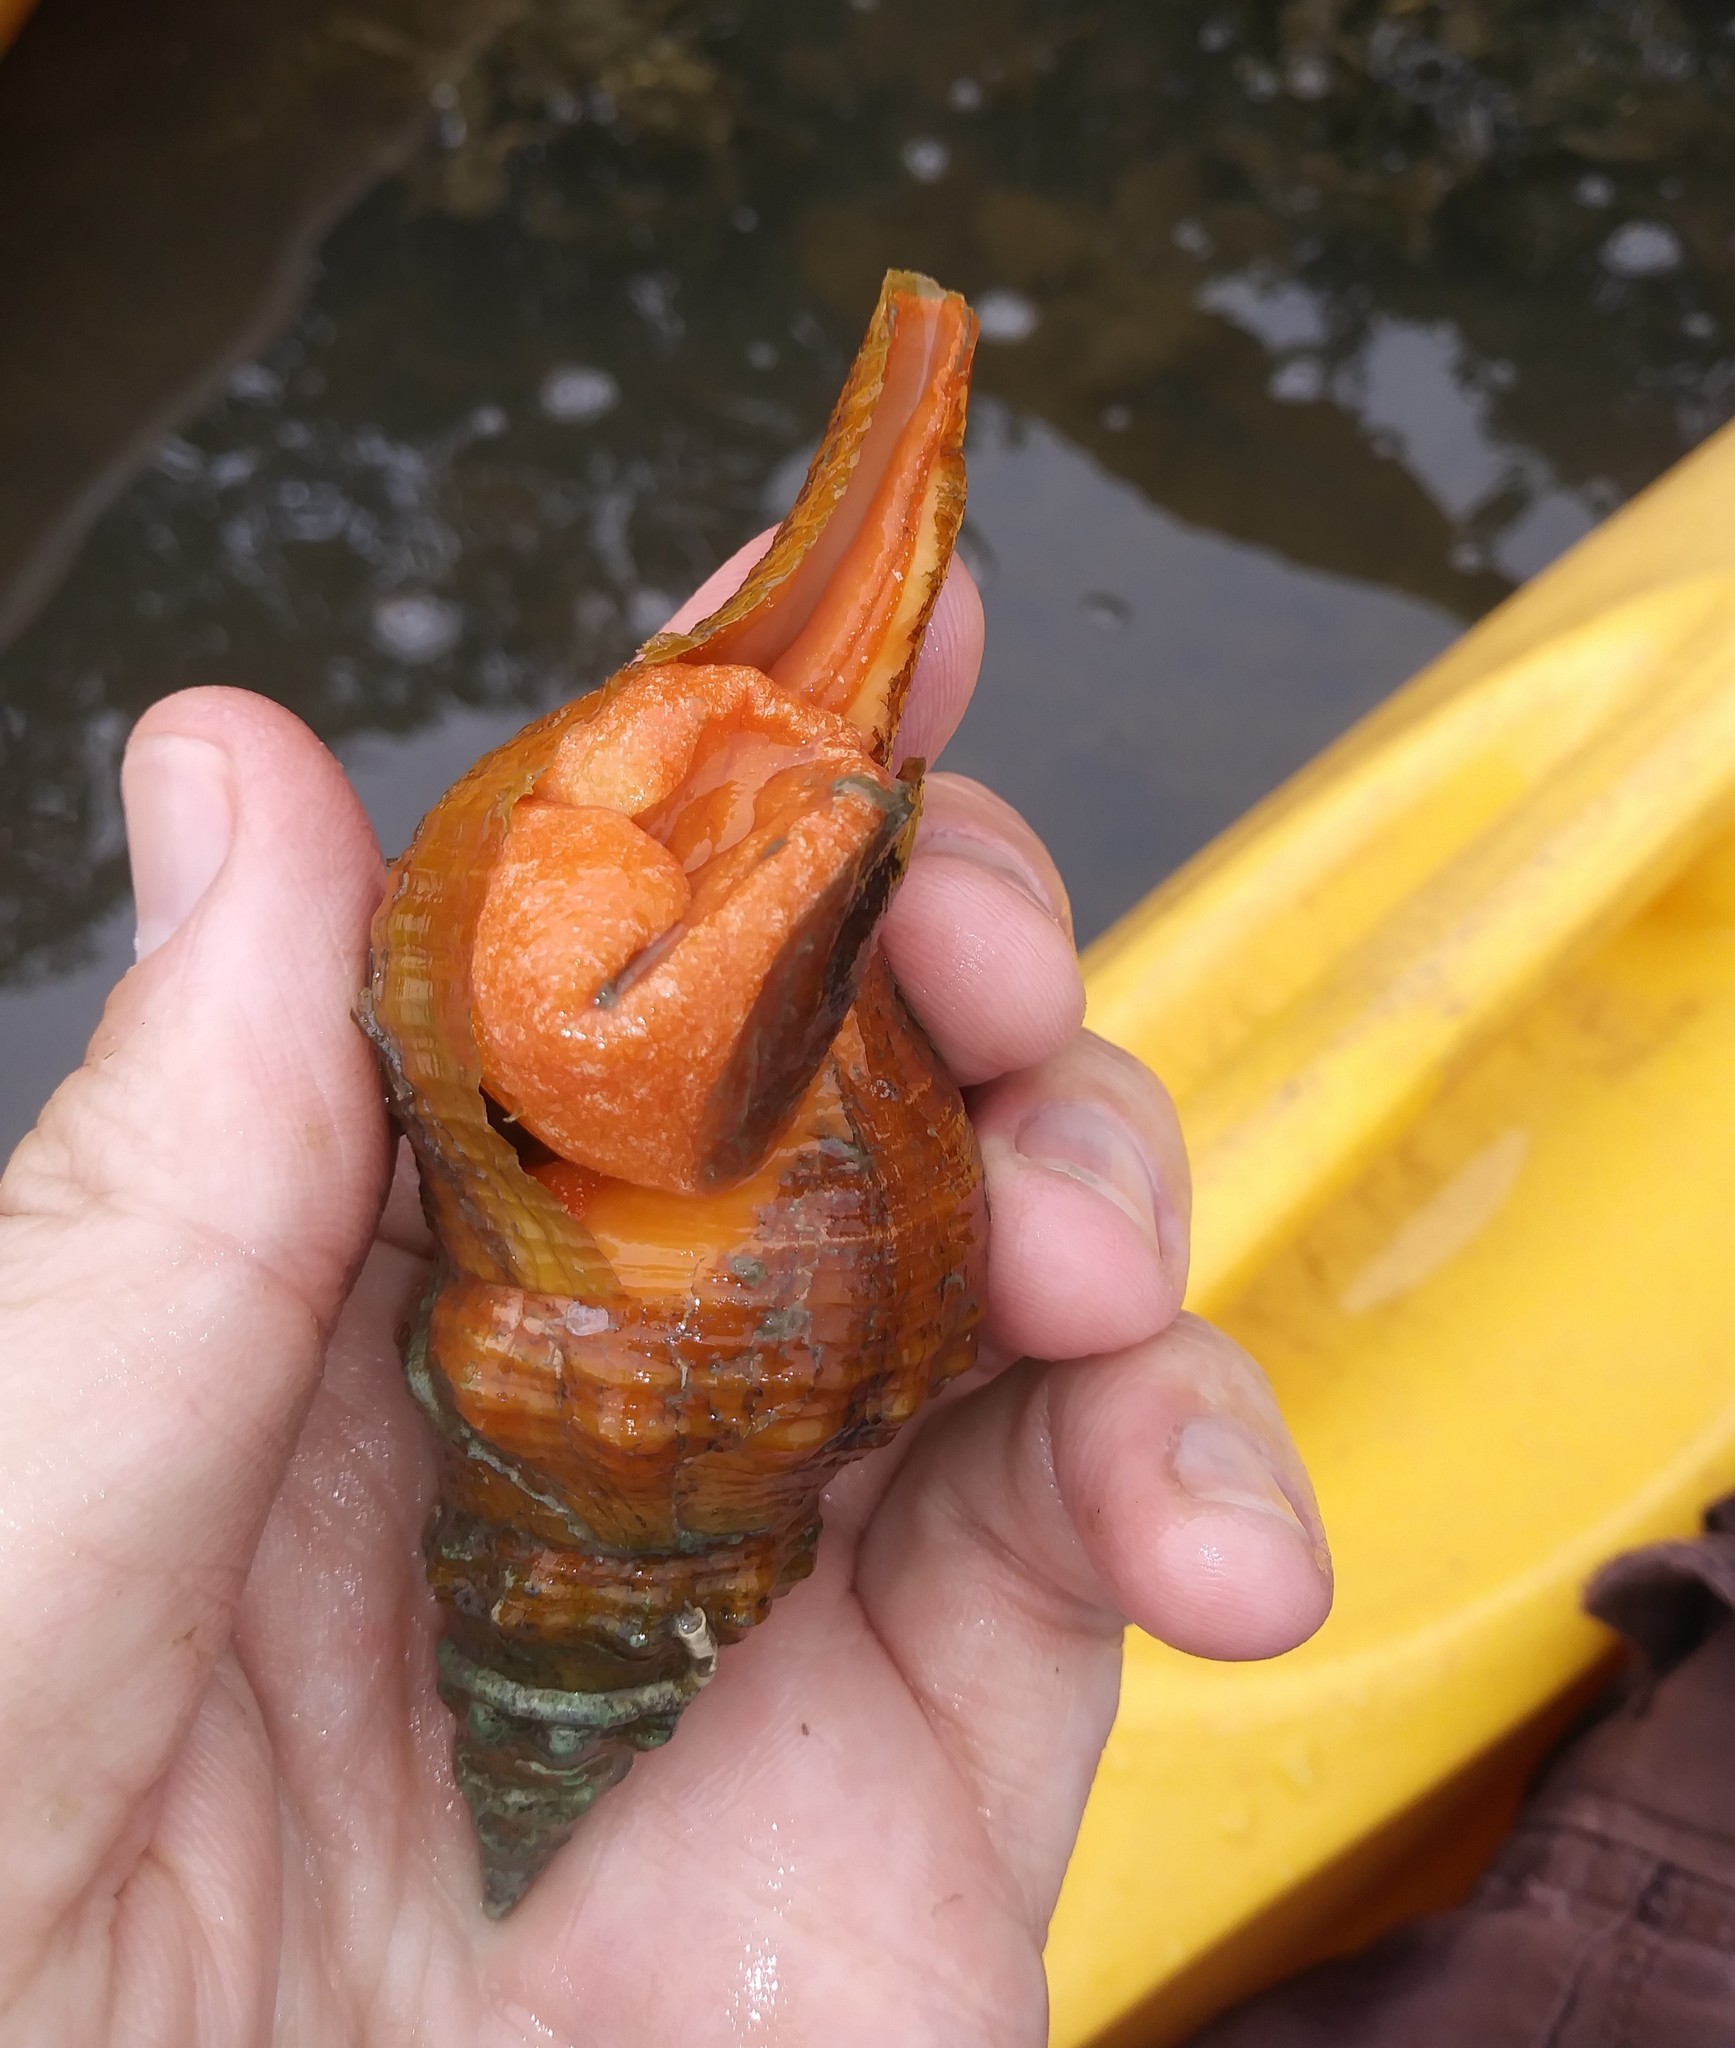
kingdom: Animalia
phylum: Mollusca
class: Gastropoda
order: Neogastropoda
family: Fasciolariidae
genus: Triplofusus
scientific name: Triplofusus giganteus
